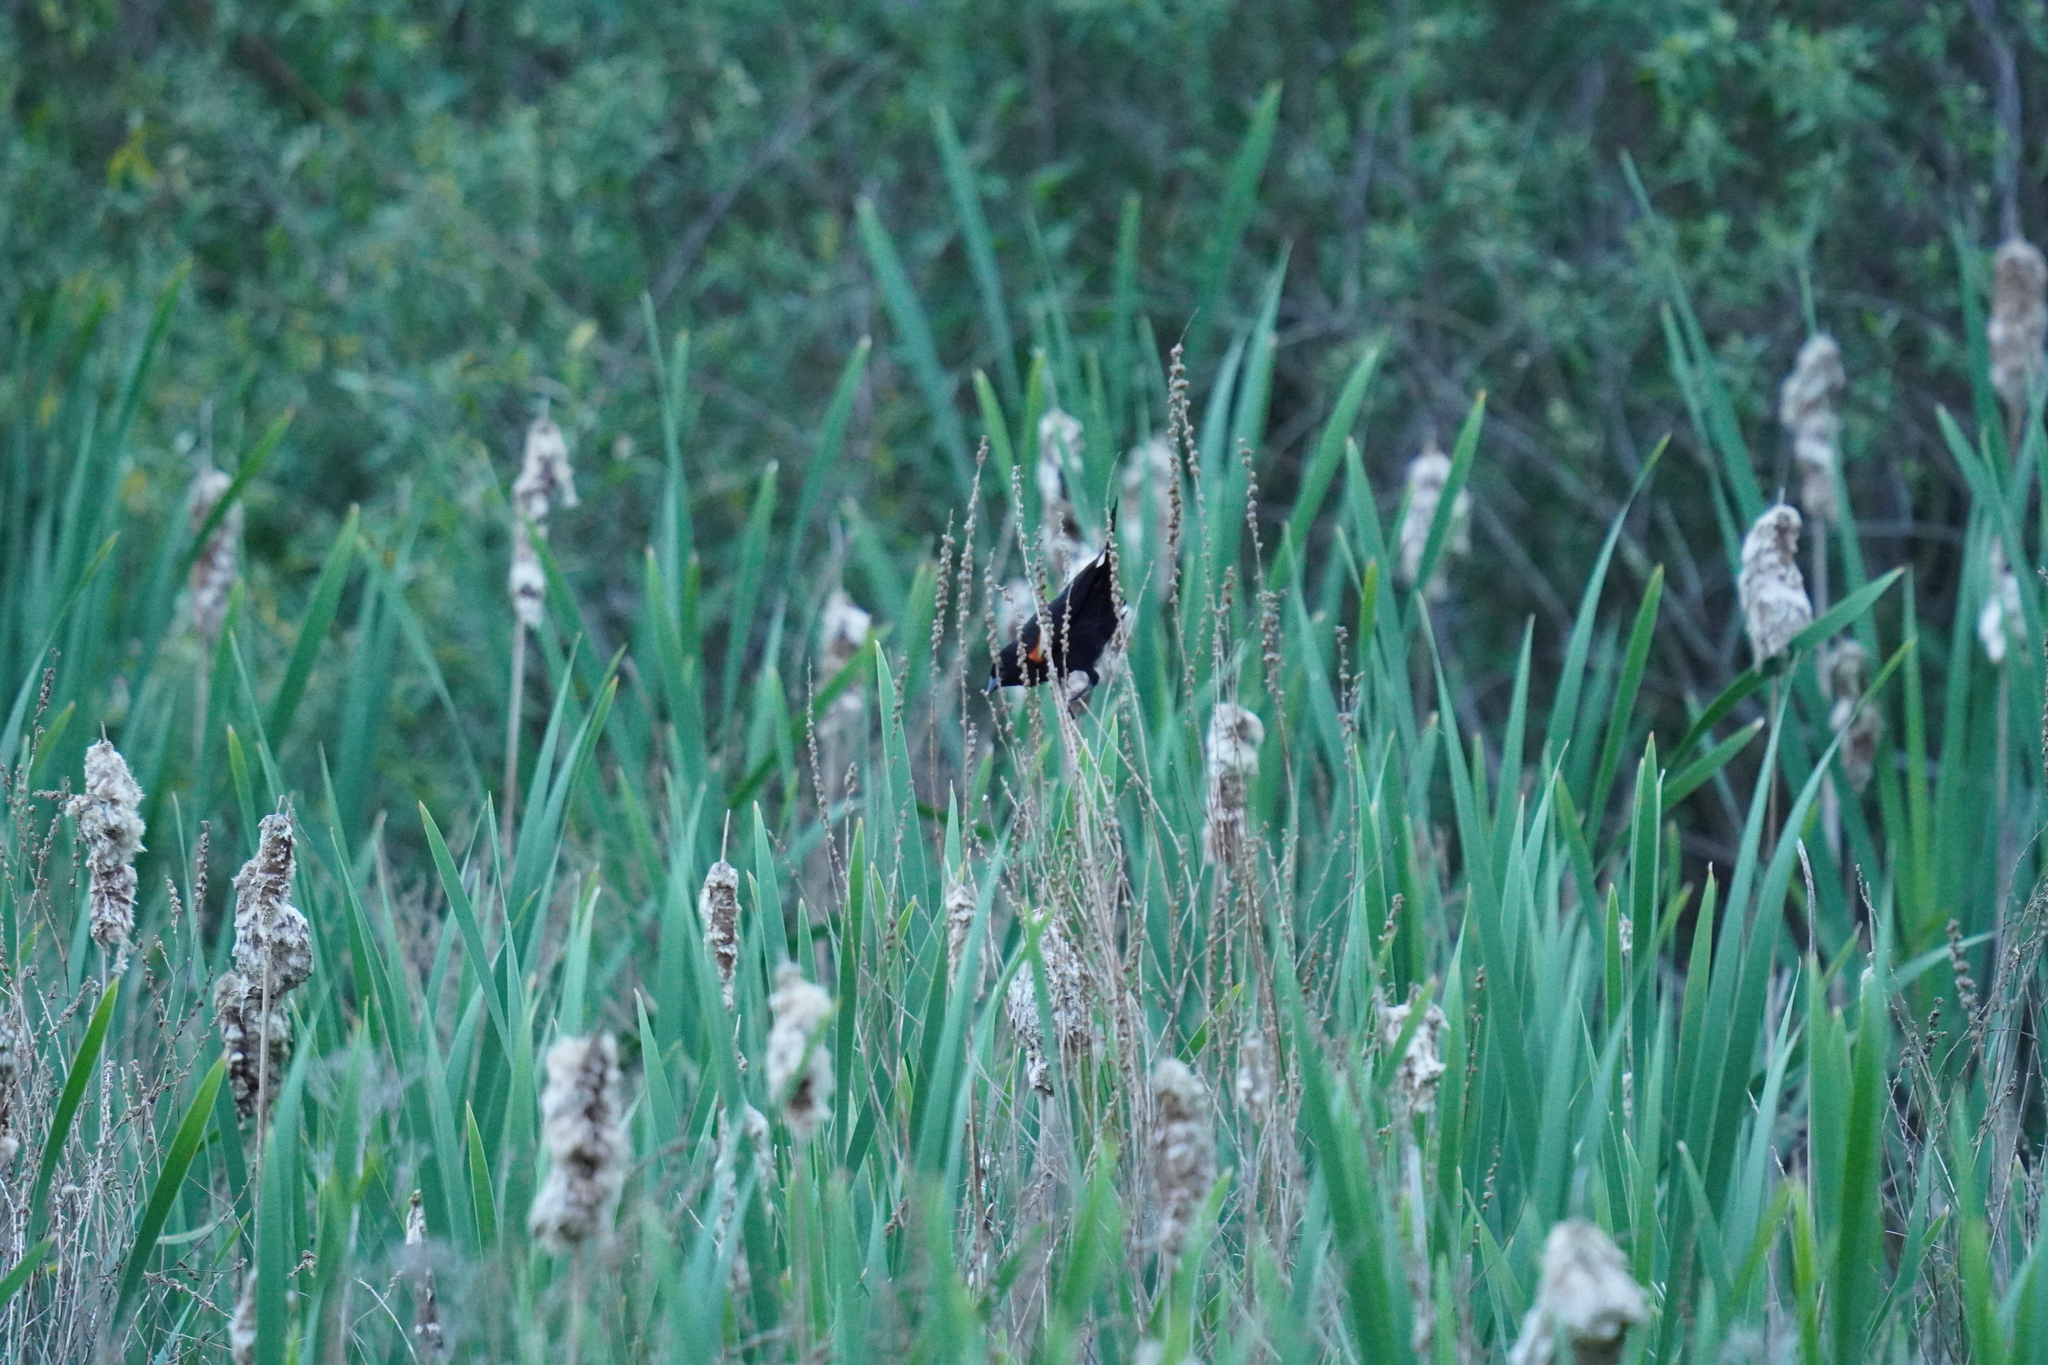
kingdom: Animalia
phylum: Chordata
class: Aves
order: Passeriformes
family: Icteridae
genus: Agelaius
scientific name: Agelaius phoeniceus
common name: Red-winged blackbird
